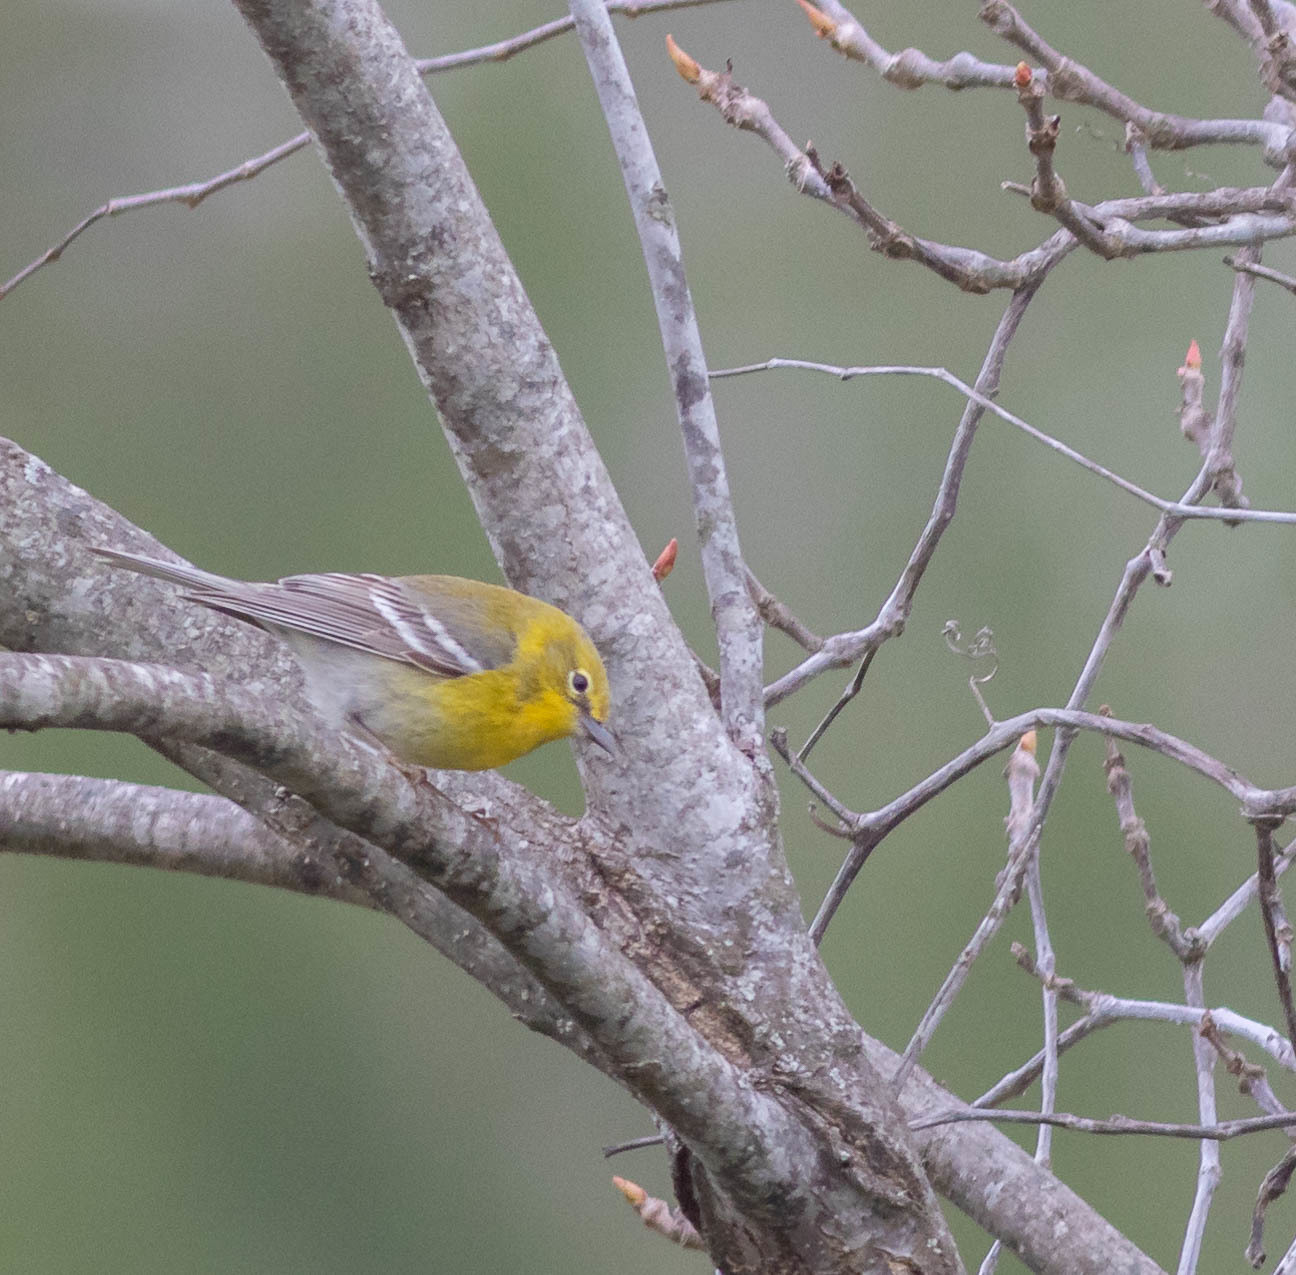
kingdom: Animalia
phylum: Chordata
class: Aves
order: Passeriformes
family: Parulidae
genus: Setophaga
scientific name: Setophaga pinus
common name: Pine warbler
